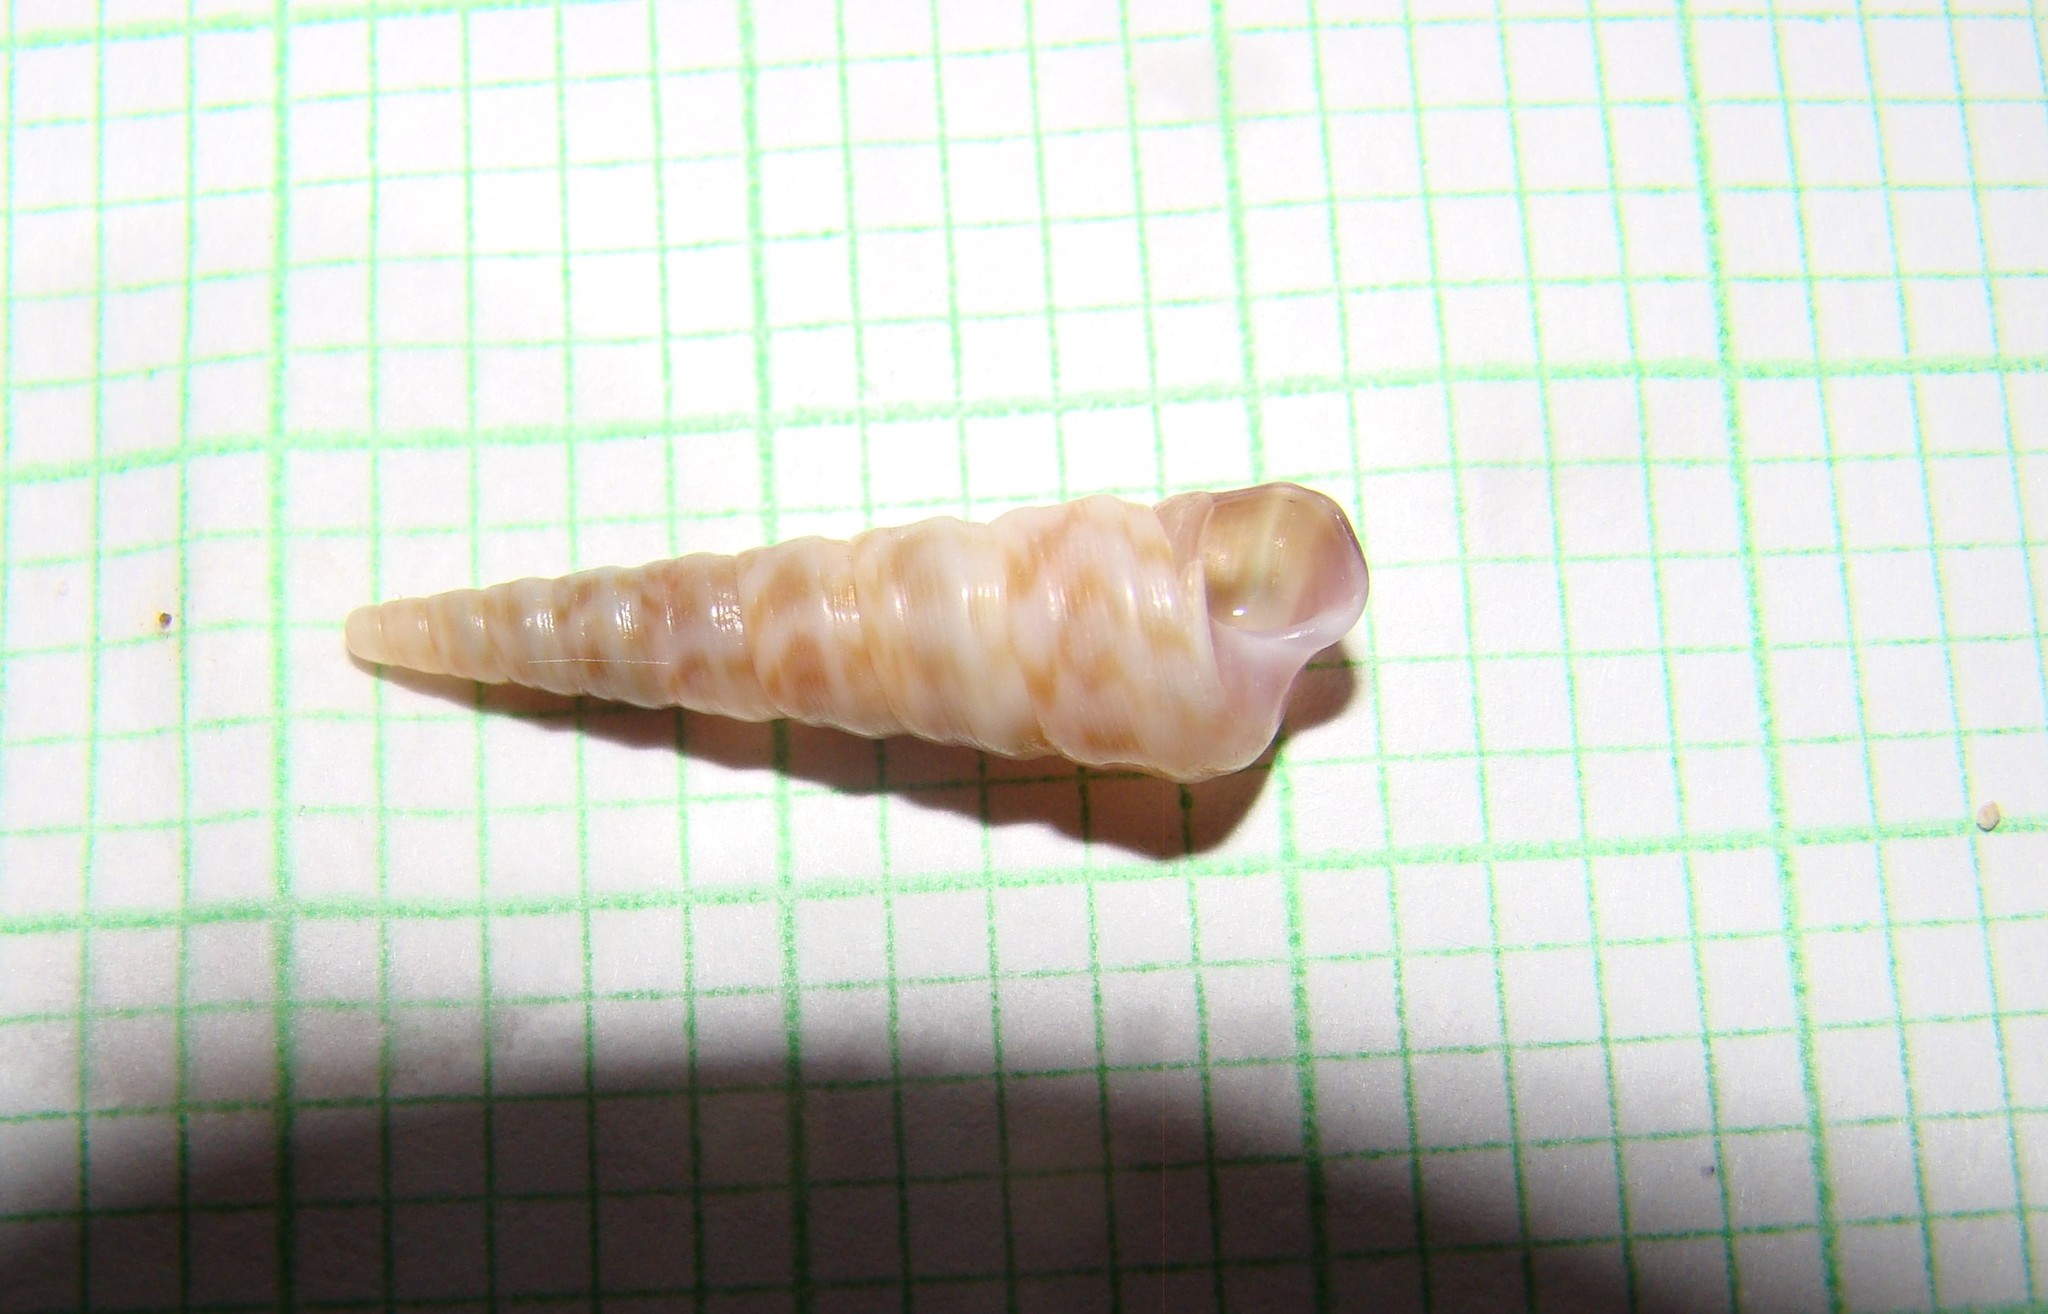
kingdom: Animalia
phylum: Mollusca
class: Gastropoda
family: Turritellidae
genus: Stiracolpus
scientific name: Stiracolpus pagoda
